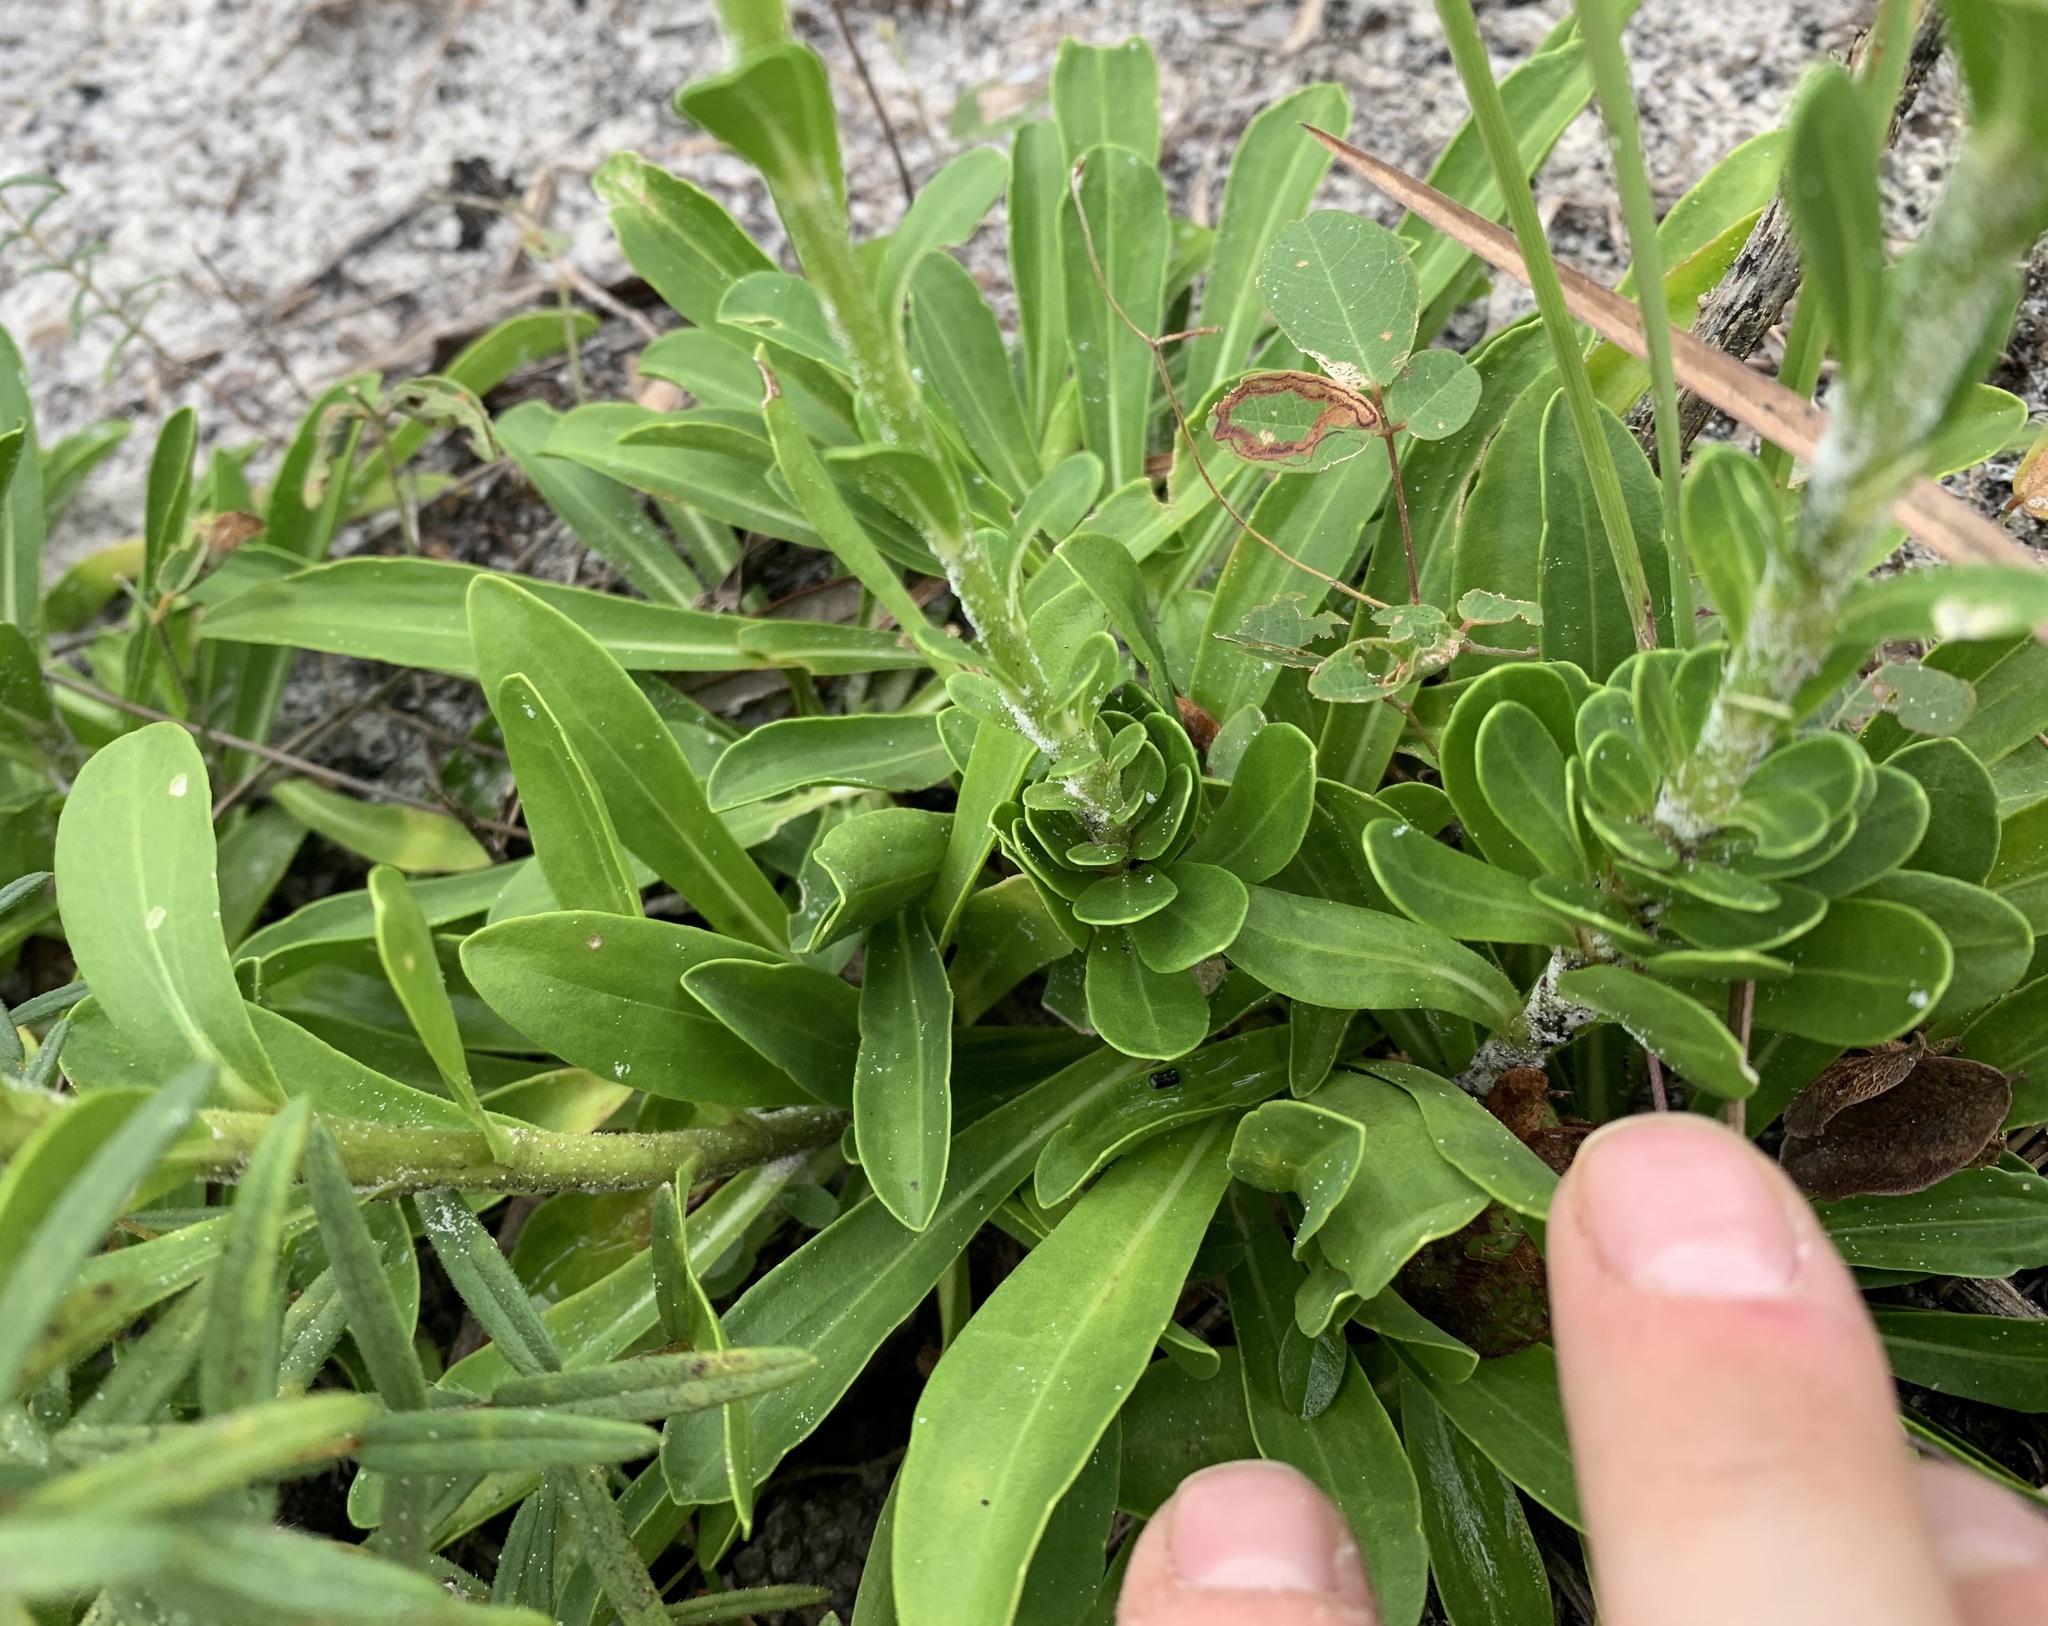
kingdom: Plantae
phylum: Tracheophyta
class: Magnoliopsida
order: Asterales
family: Asteraceae
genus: Carphephorus
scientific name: Carphephorus corymbosus
